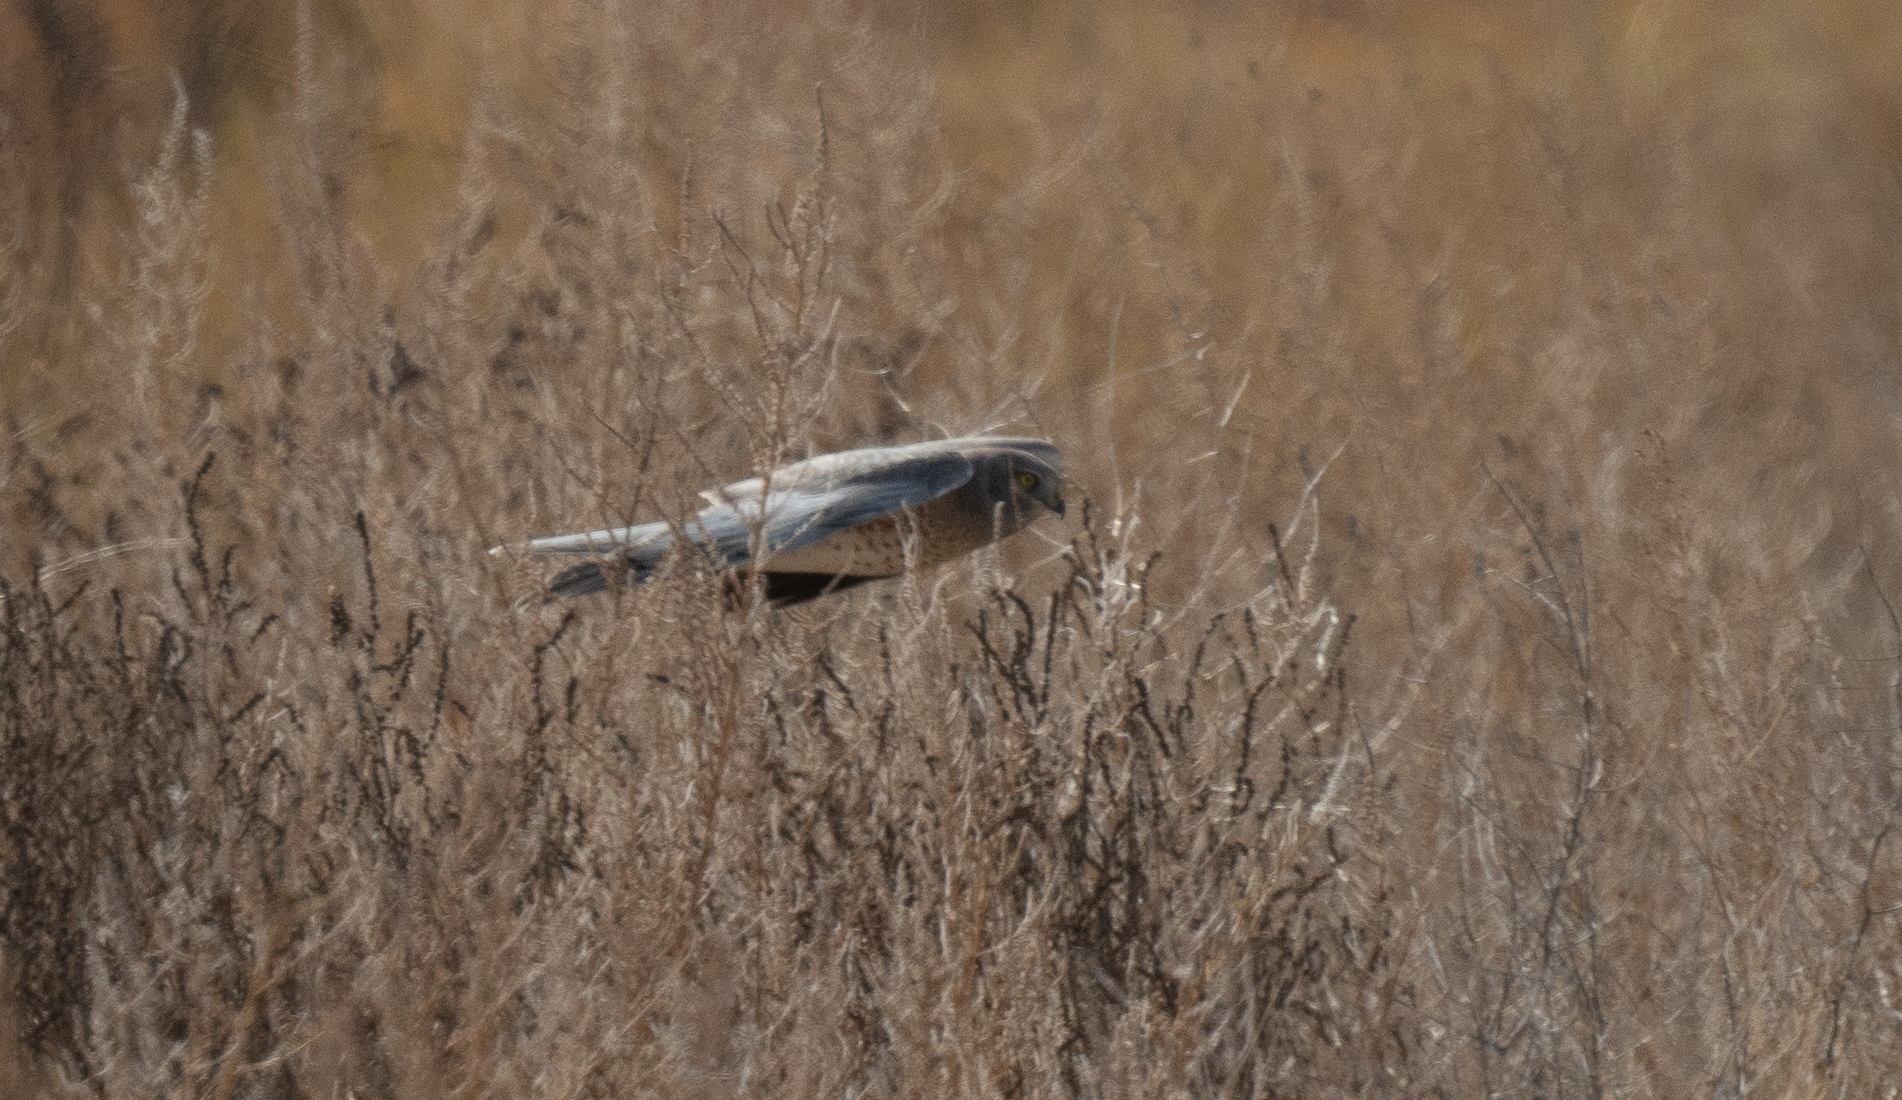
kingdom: Animalia
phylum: Chordata
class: Aves
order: Accipitriformes
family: Accipitridae
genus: Circus
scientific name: Circus cyaneus
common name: Hen harrier
